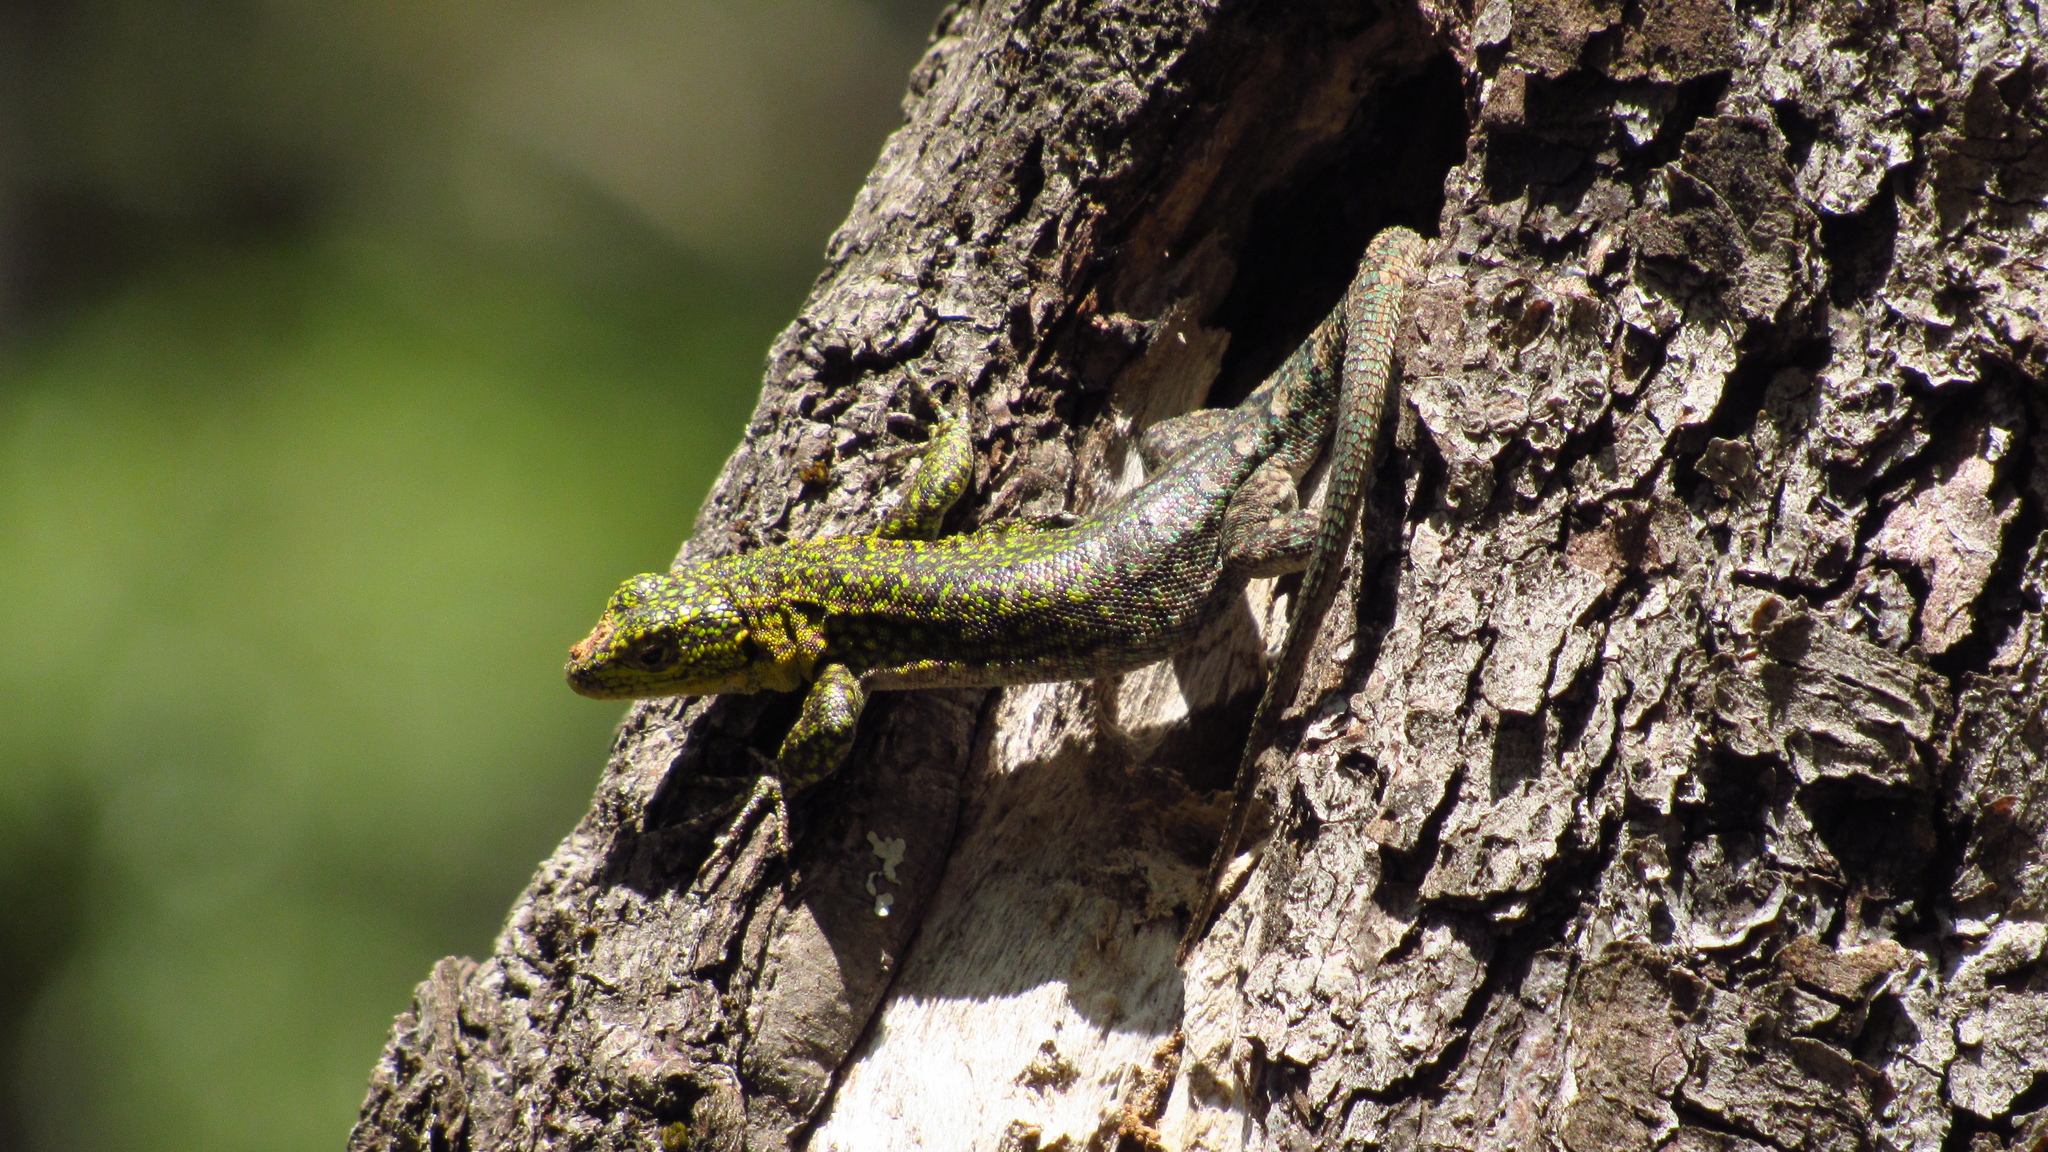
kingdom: Animalia
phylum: Chordata
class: Squamata
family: Liolaemidae
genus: Liolaemus
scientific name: Liolaemus tenuis
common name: Thin tree iguana
